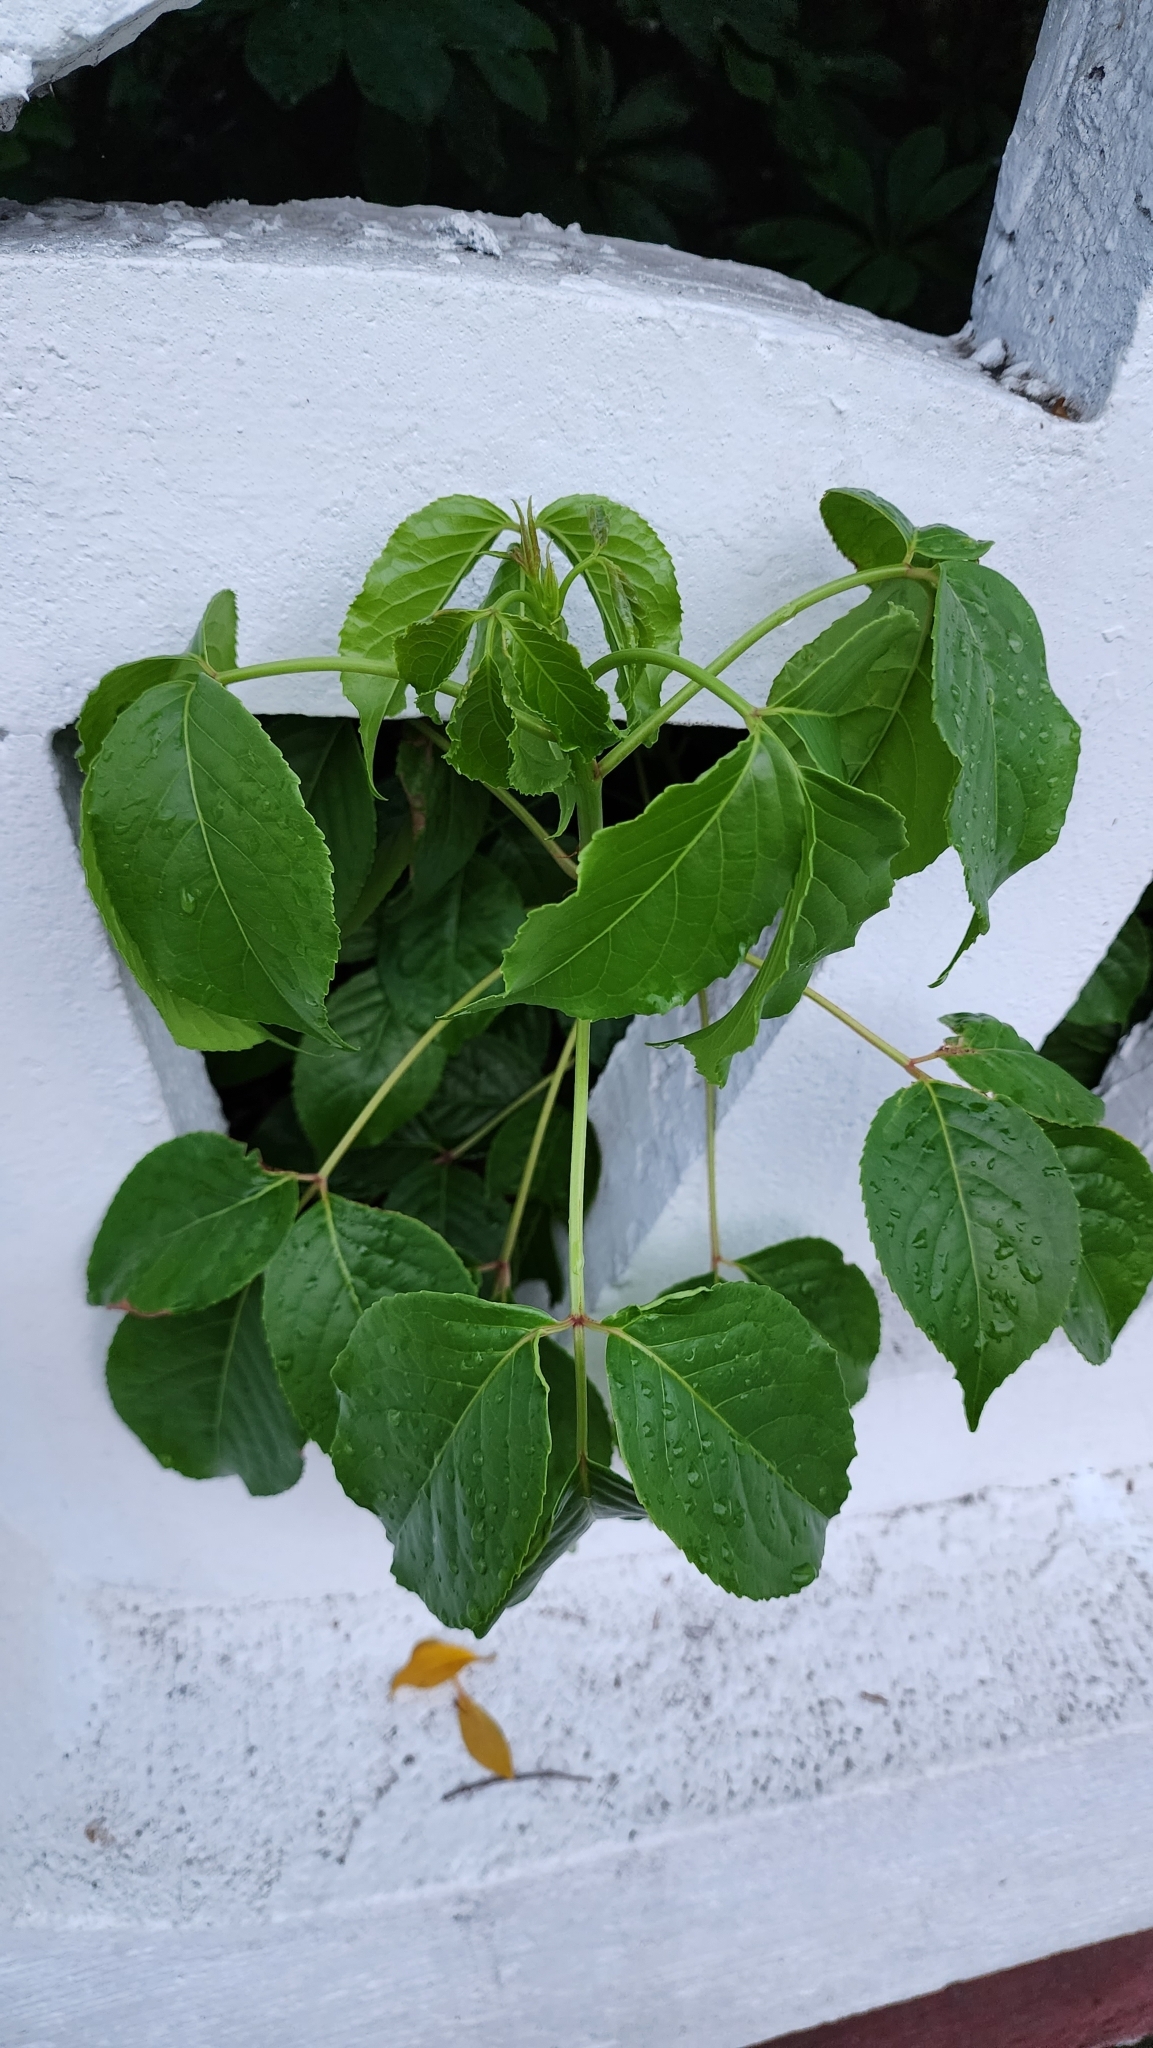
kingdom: Plantae
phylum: Tracheophyta
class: Magnoliopsida
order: Malpighiales
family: Phyllanthaceae
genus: Bischofia
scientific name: Bischofia javanica
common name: Javanese bishopwood
